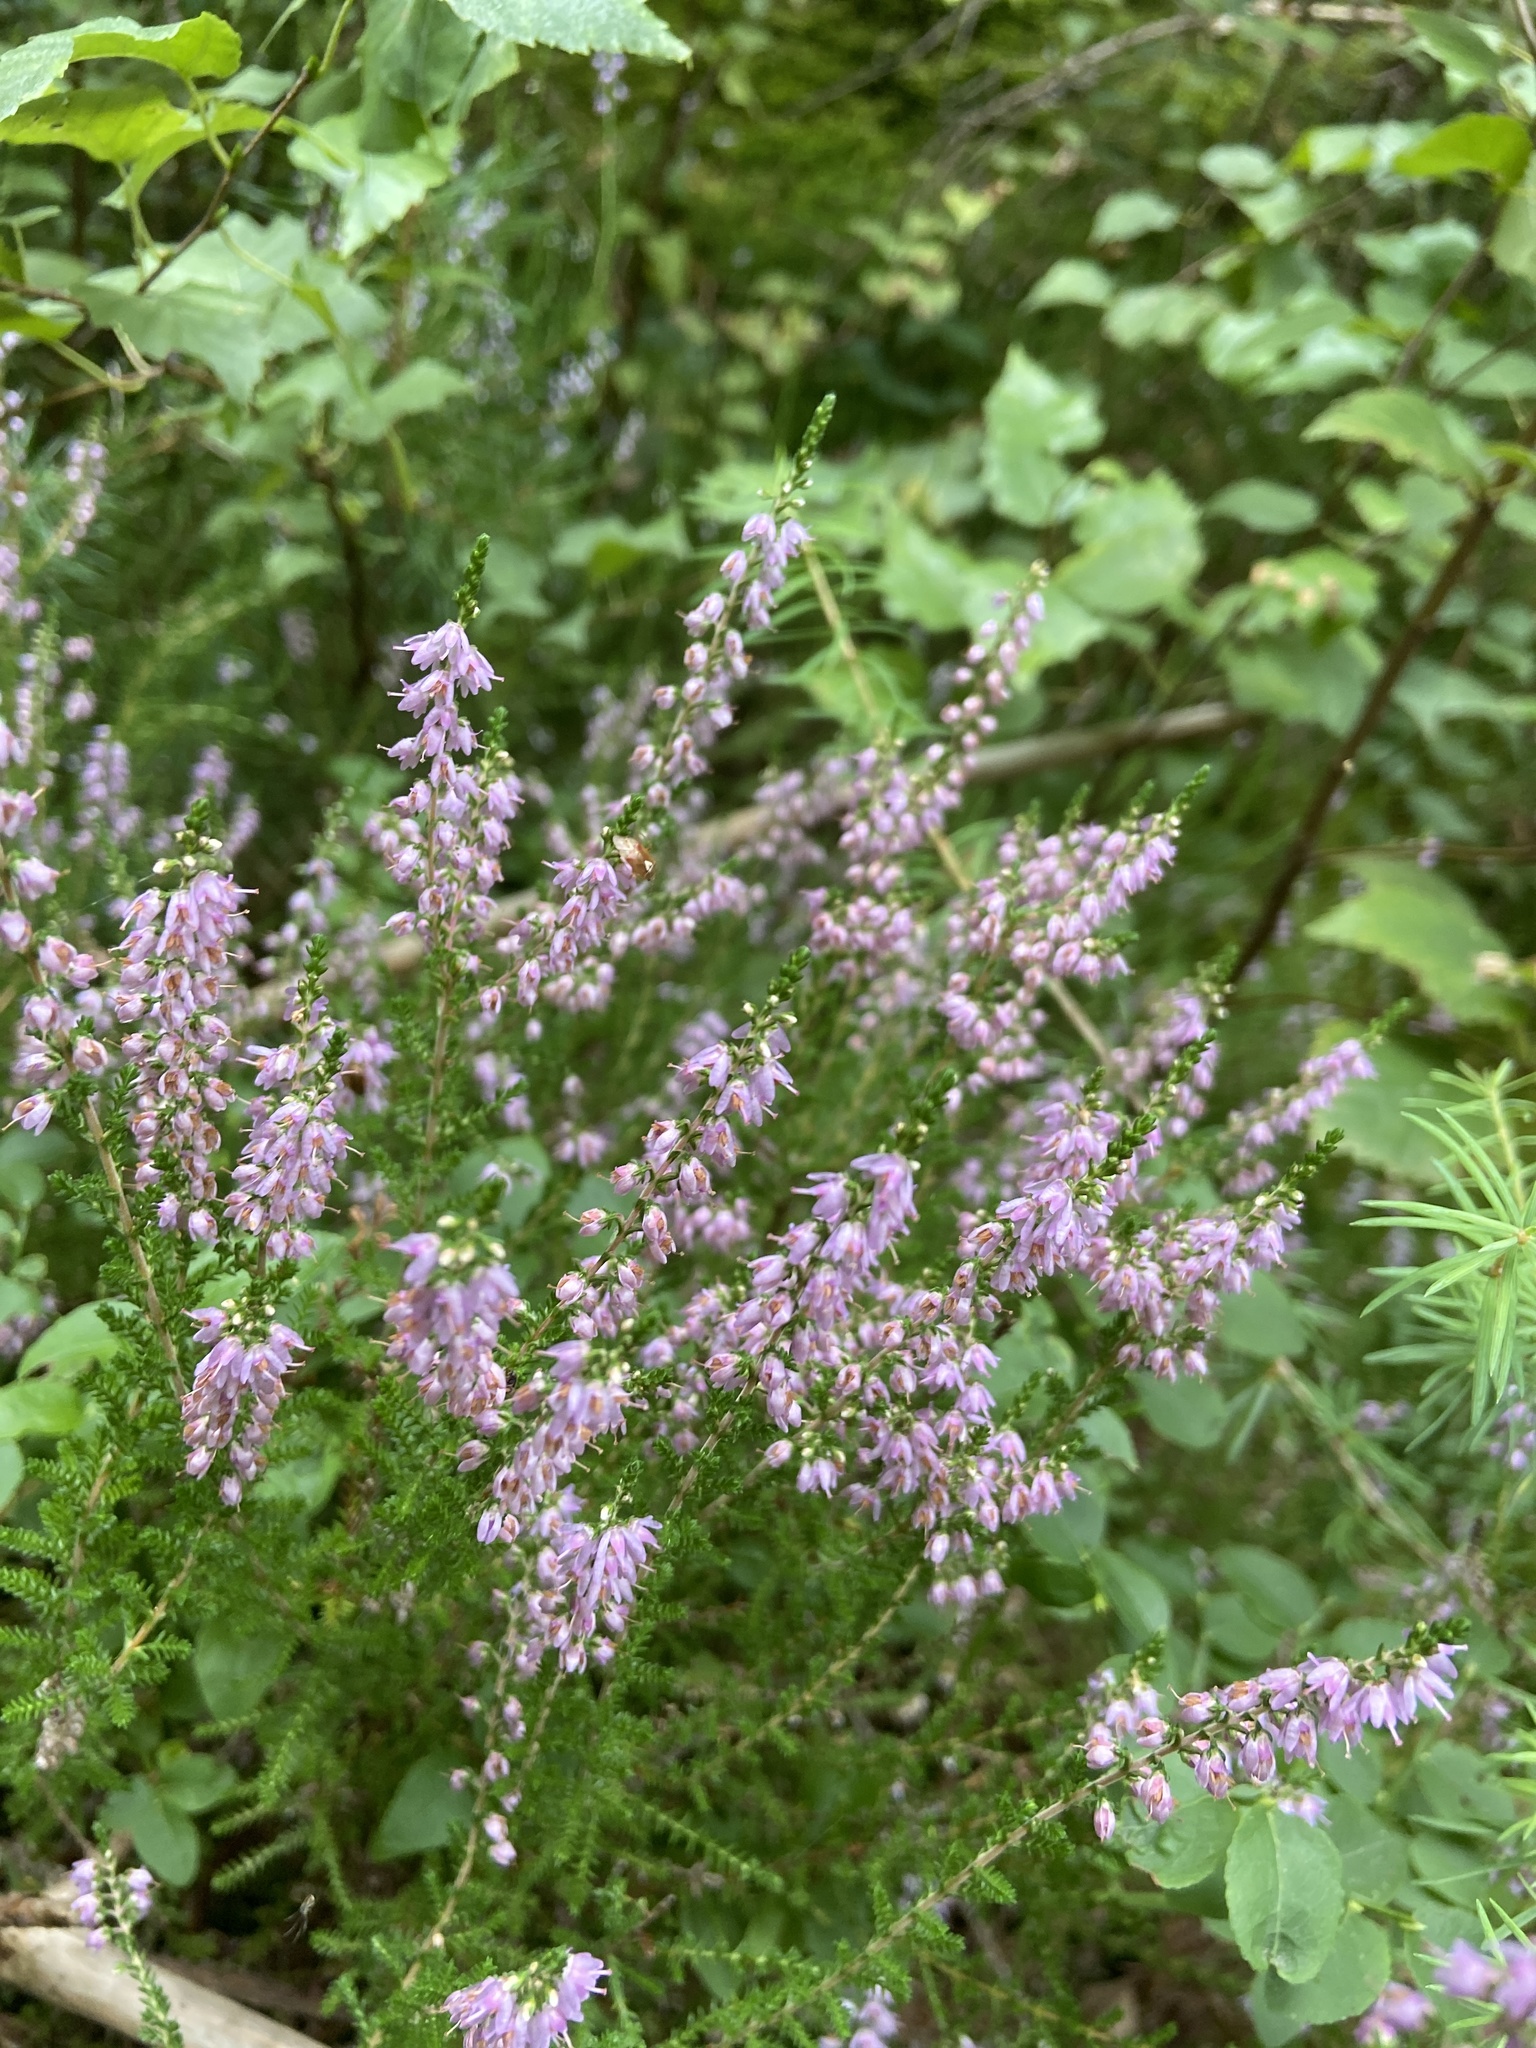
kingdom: Plantae
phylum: Tracheophyta
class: Magnoliopsida
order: Ericales
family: Ericaceae
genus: Calluna
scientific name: Calluna vulgaris
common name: Heather
